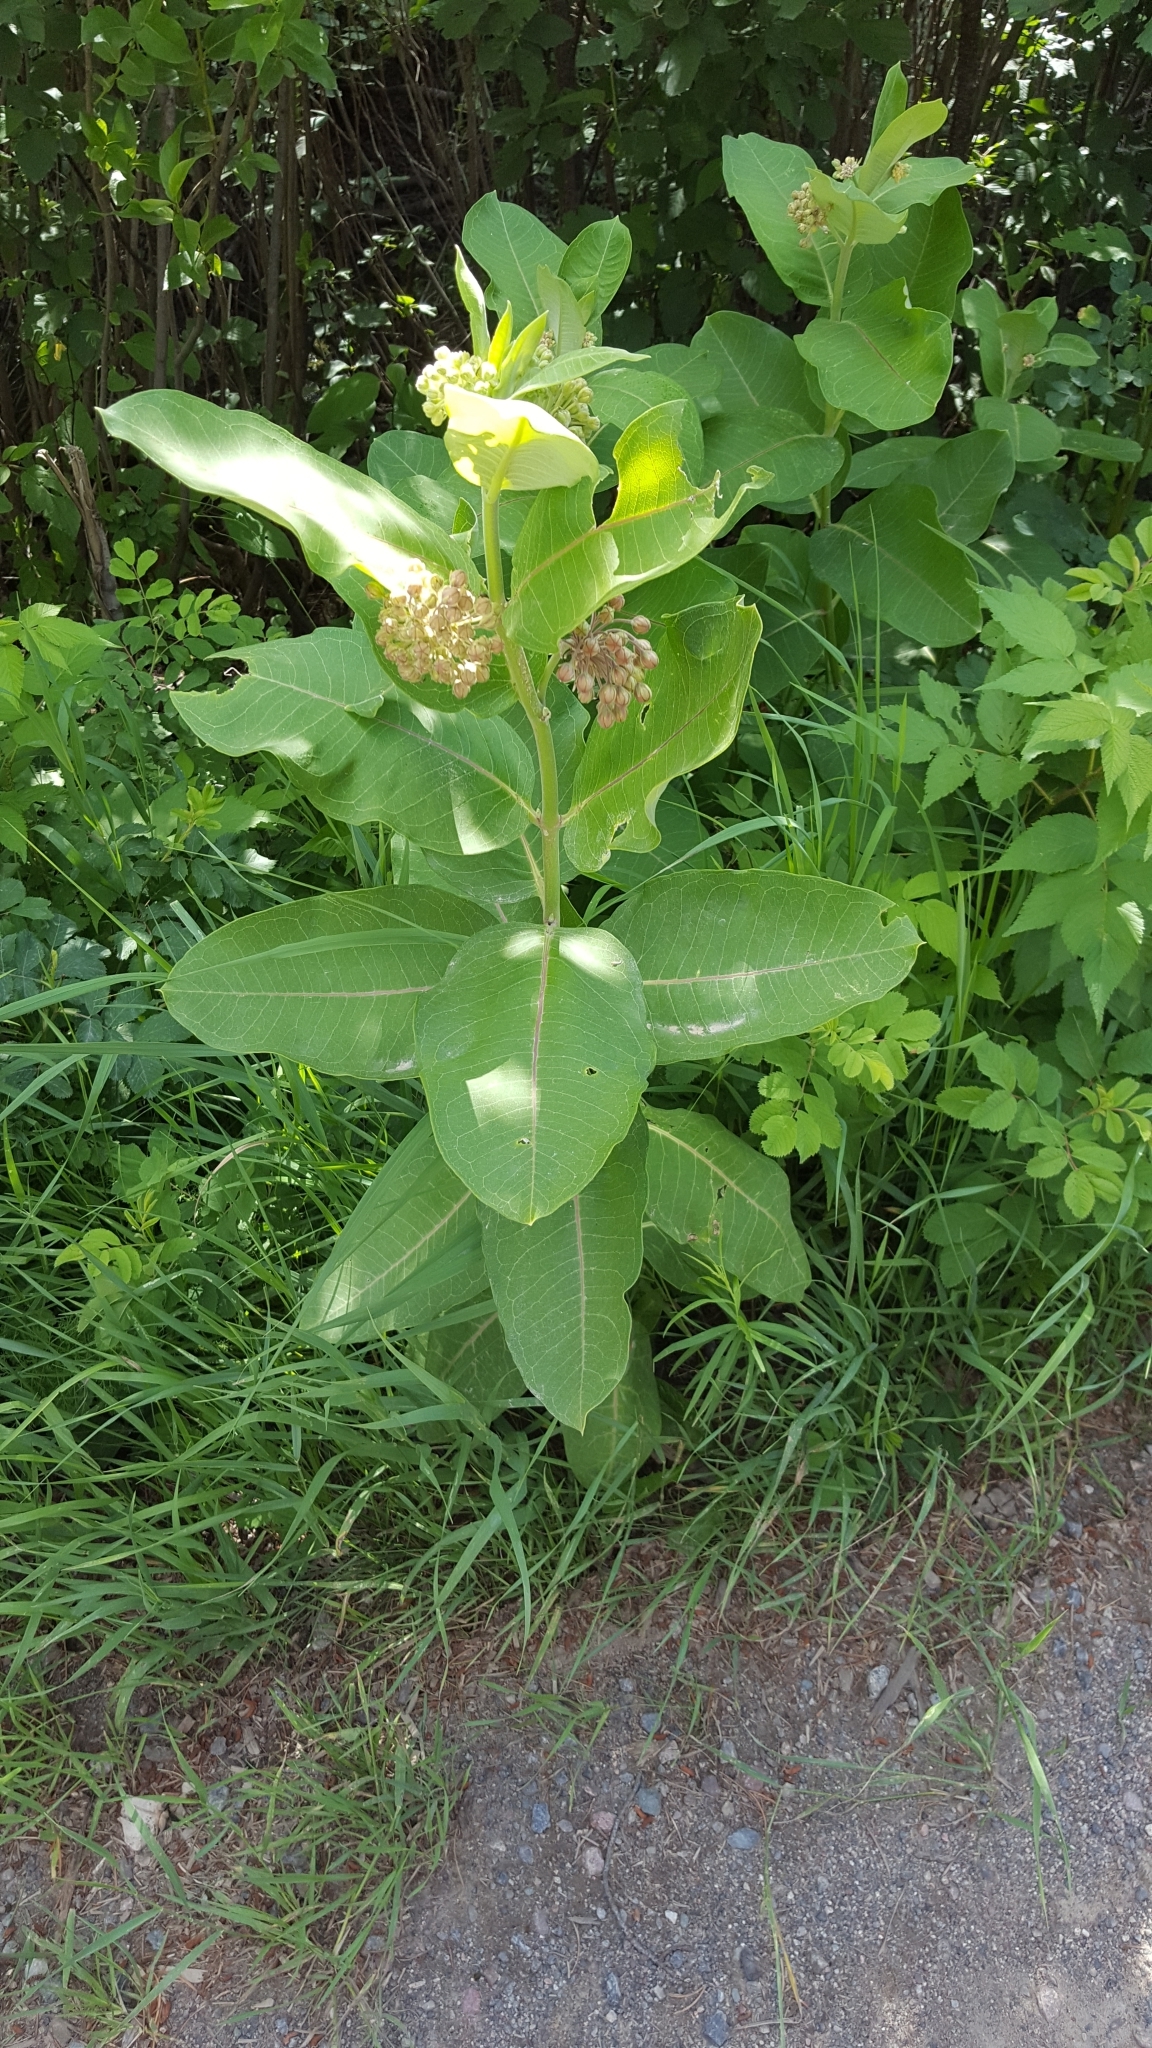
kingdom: Plantae
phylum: Tracheophyta
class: Magnoliopsida
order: Gentianales
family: Apocynaceae
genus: Asclepias
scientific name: Asclepias syriaca
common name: Common milkweed
